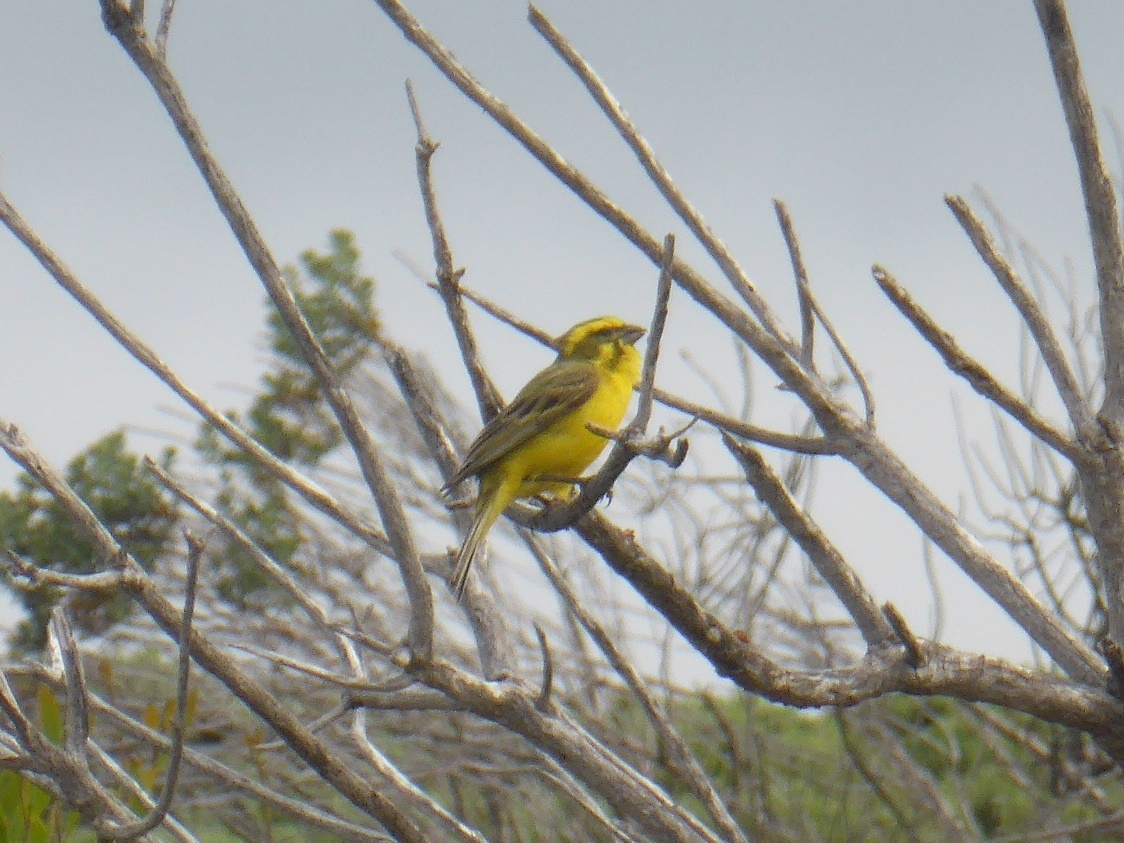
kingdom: Animalia
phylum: Chordata
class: Aves
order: Passeriformes
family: Fringillidae
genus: Crithagra
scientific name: Crithagra flaviventris
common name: Yellow canary
